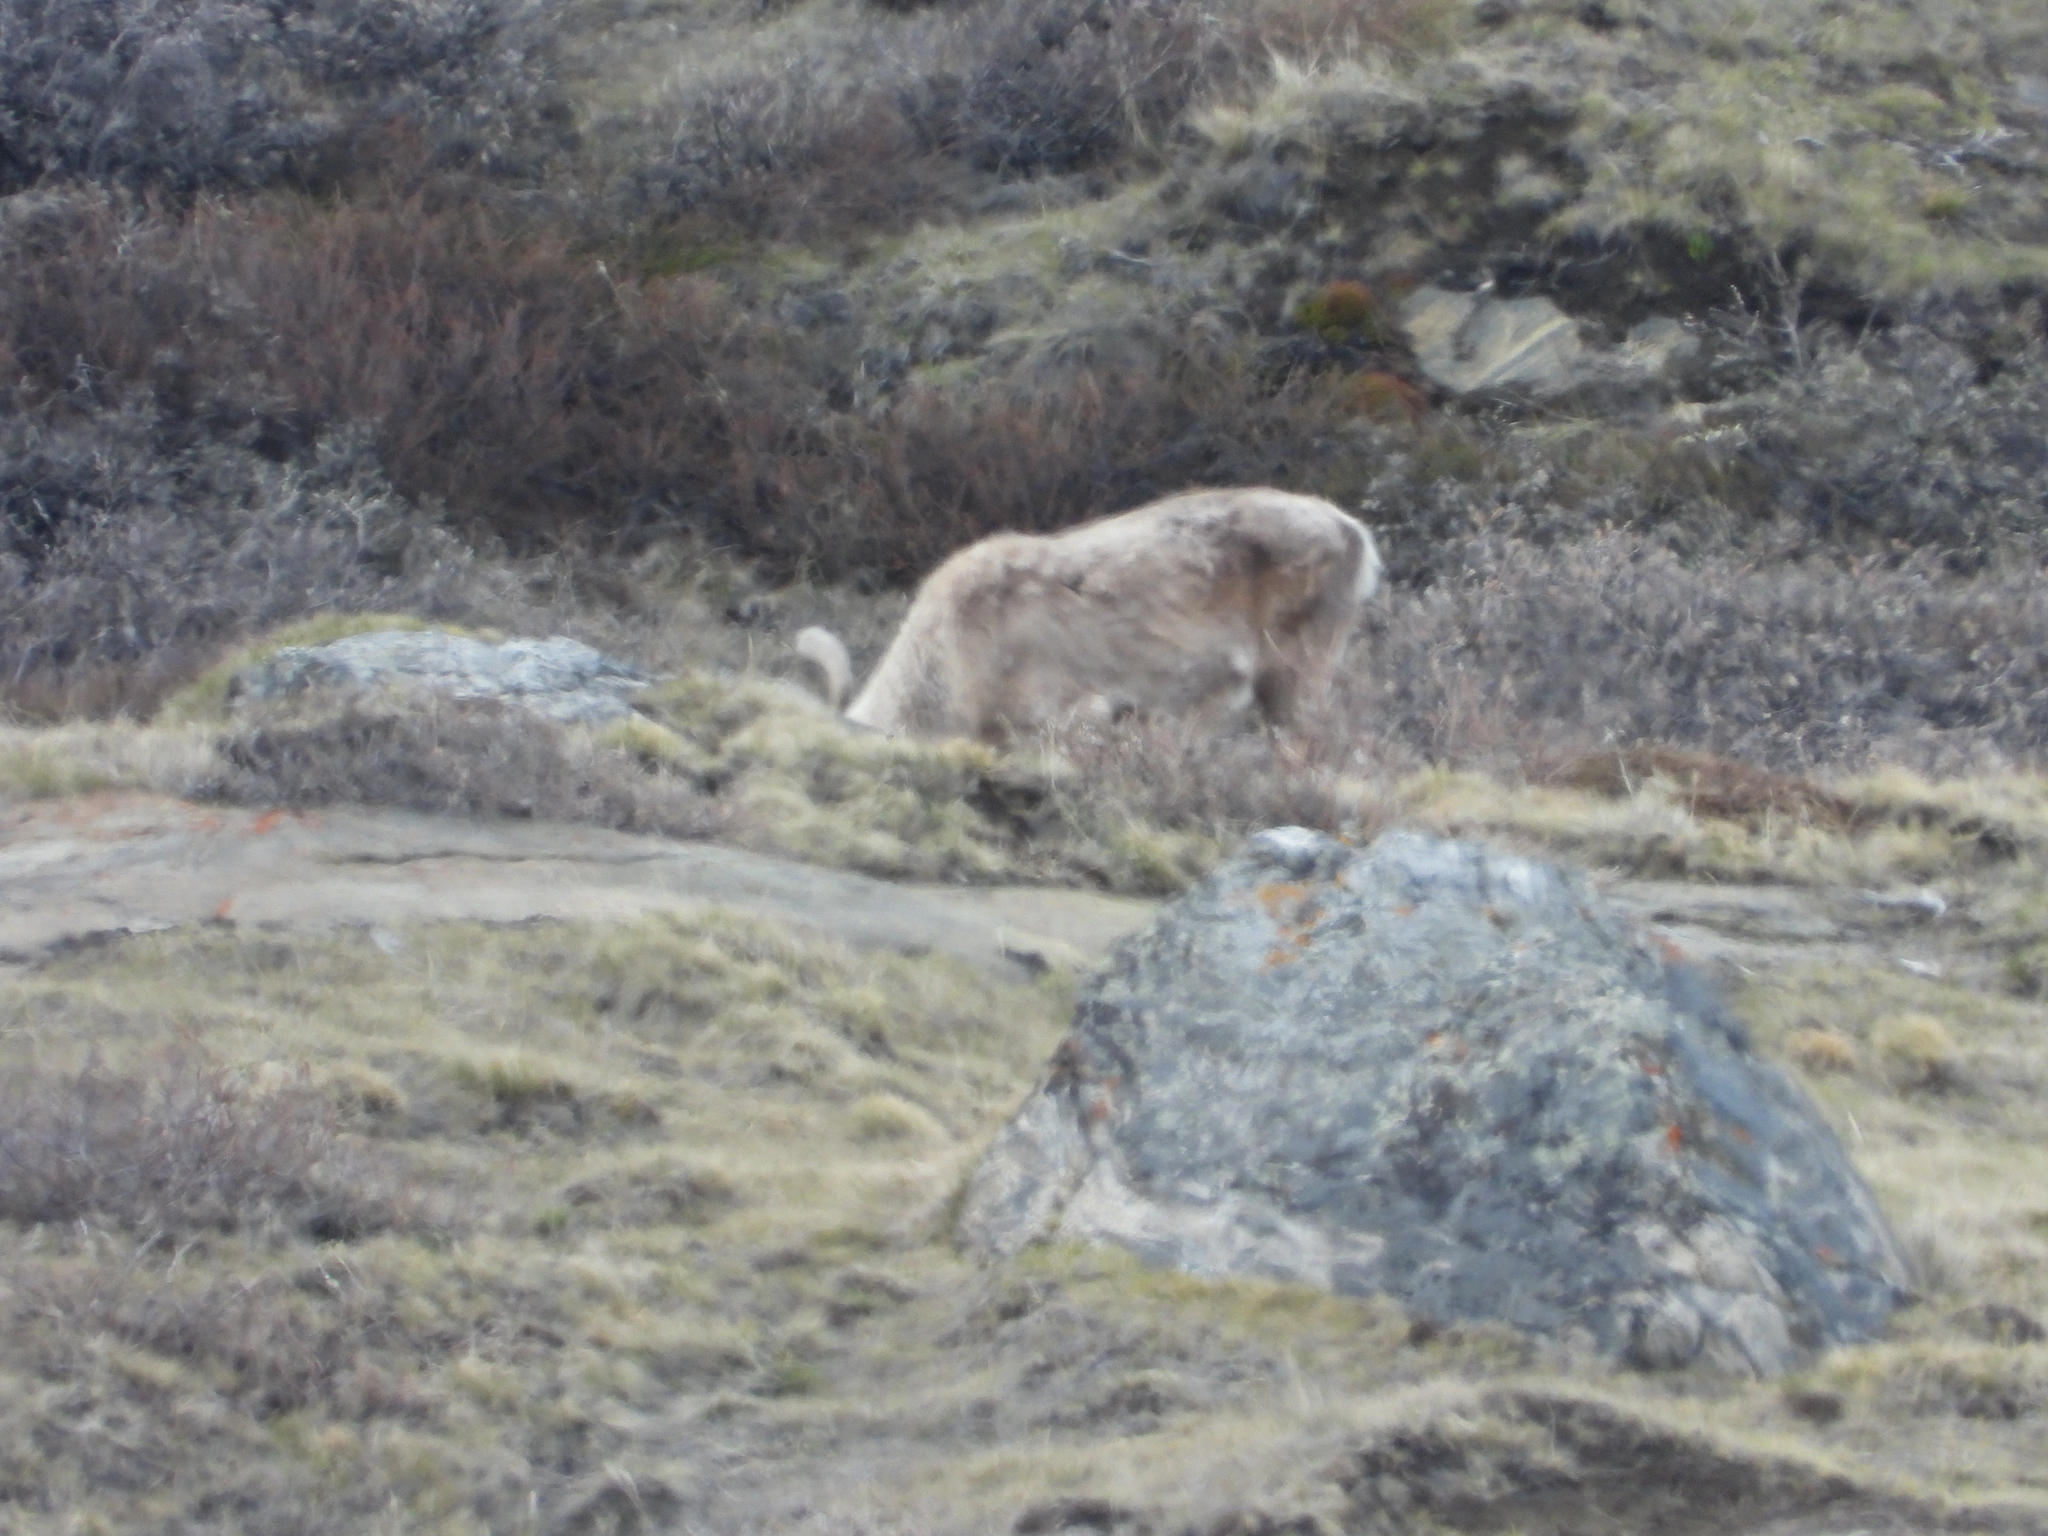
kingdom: Animalia
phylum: Chordata
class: Mammalia
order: Artiodactyla
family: Cervidae
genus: Rangifer
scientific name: Rangifer tarandus
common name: Reindeer
